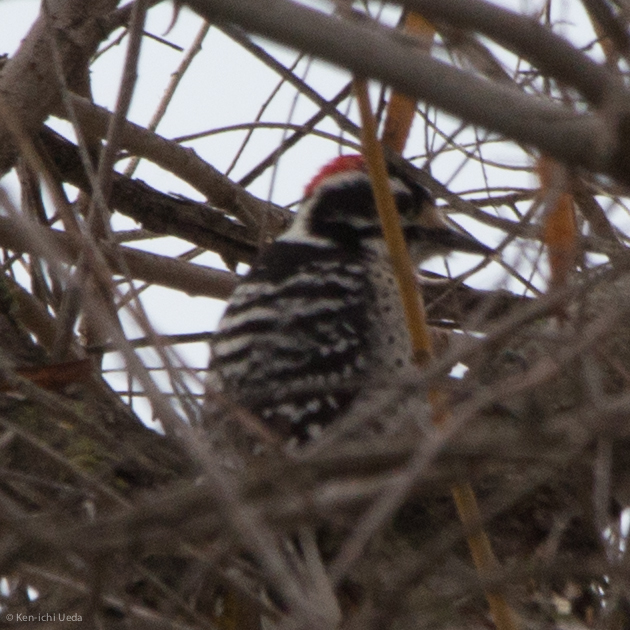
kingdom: Animalia
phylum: Chordata
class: Aves
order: Piciformes
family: Picidae
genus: Dryobates
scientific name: Dryobates nuttallii
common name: Nuttall's woodpecker
